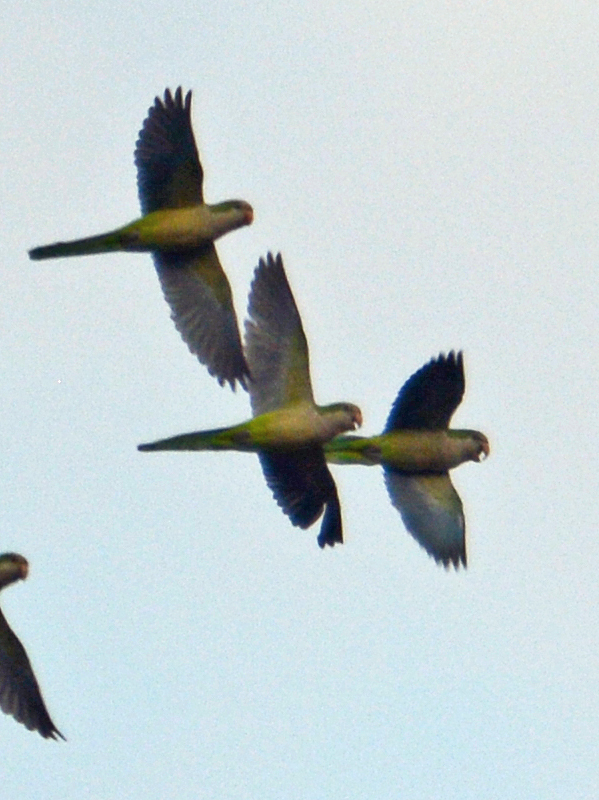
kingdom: Animalia
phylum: Chordata
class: Aves
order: Psittaciformes
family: Psittacidae
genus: Myiopsitta
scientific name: Myiopsitta monachus
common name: Monk parakeet
